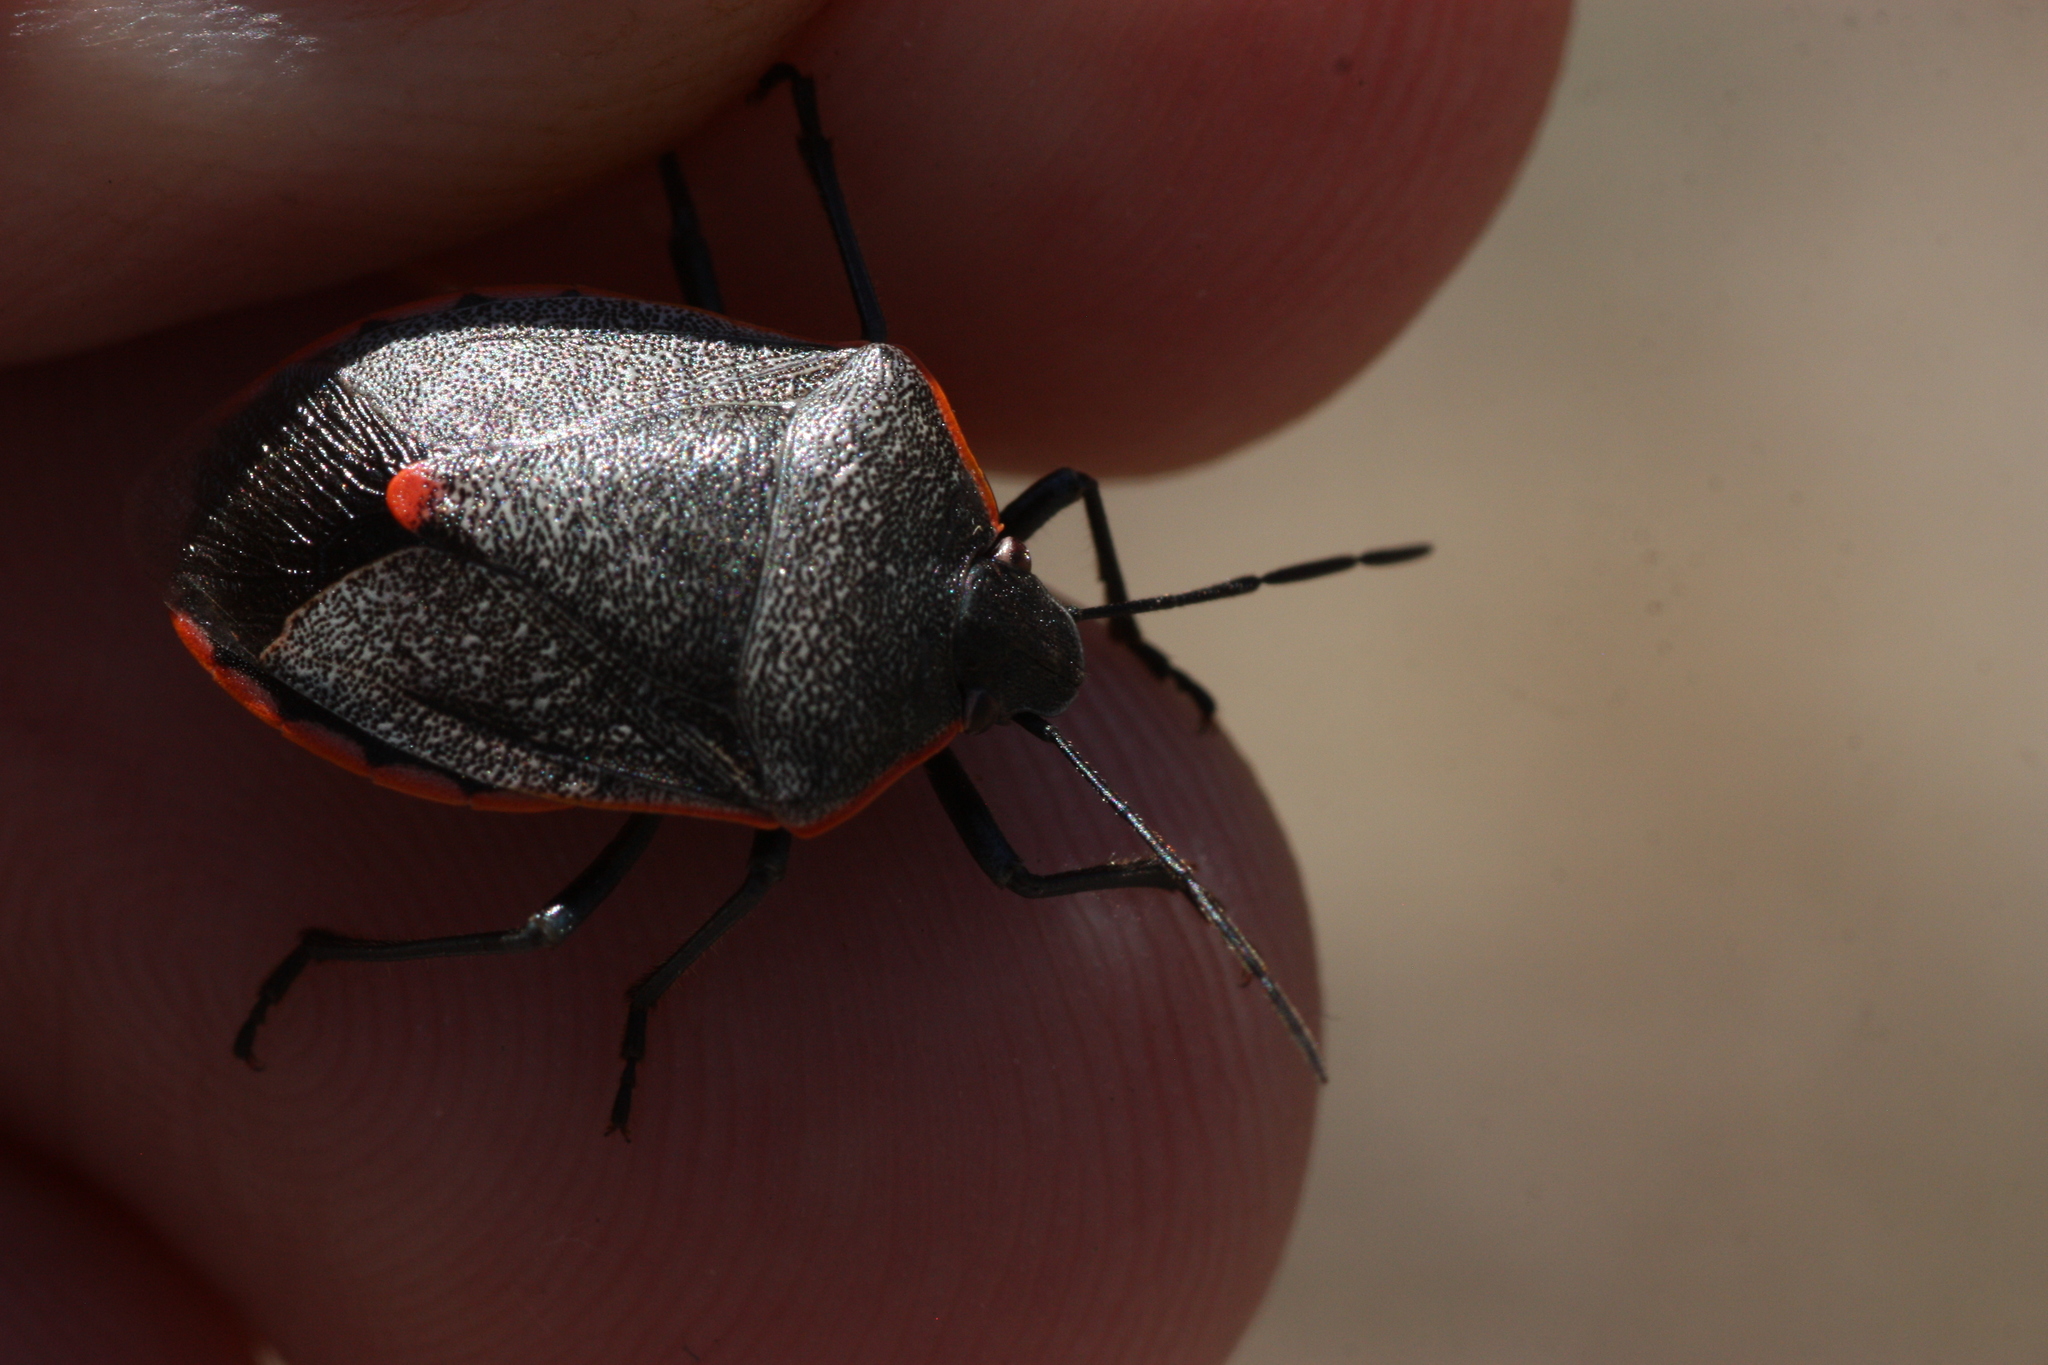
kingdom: Animalia
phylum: Arthropoda
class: Insecta
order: Hemiptera
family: Pentatomidae
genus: Chlorochroa
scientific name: Chlorochroa ligata
